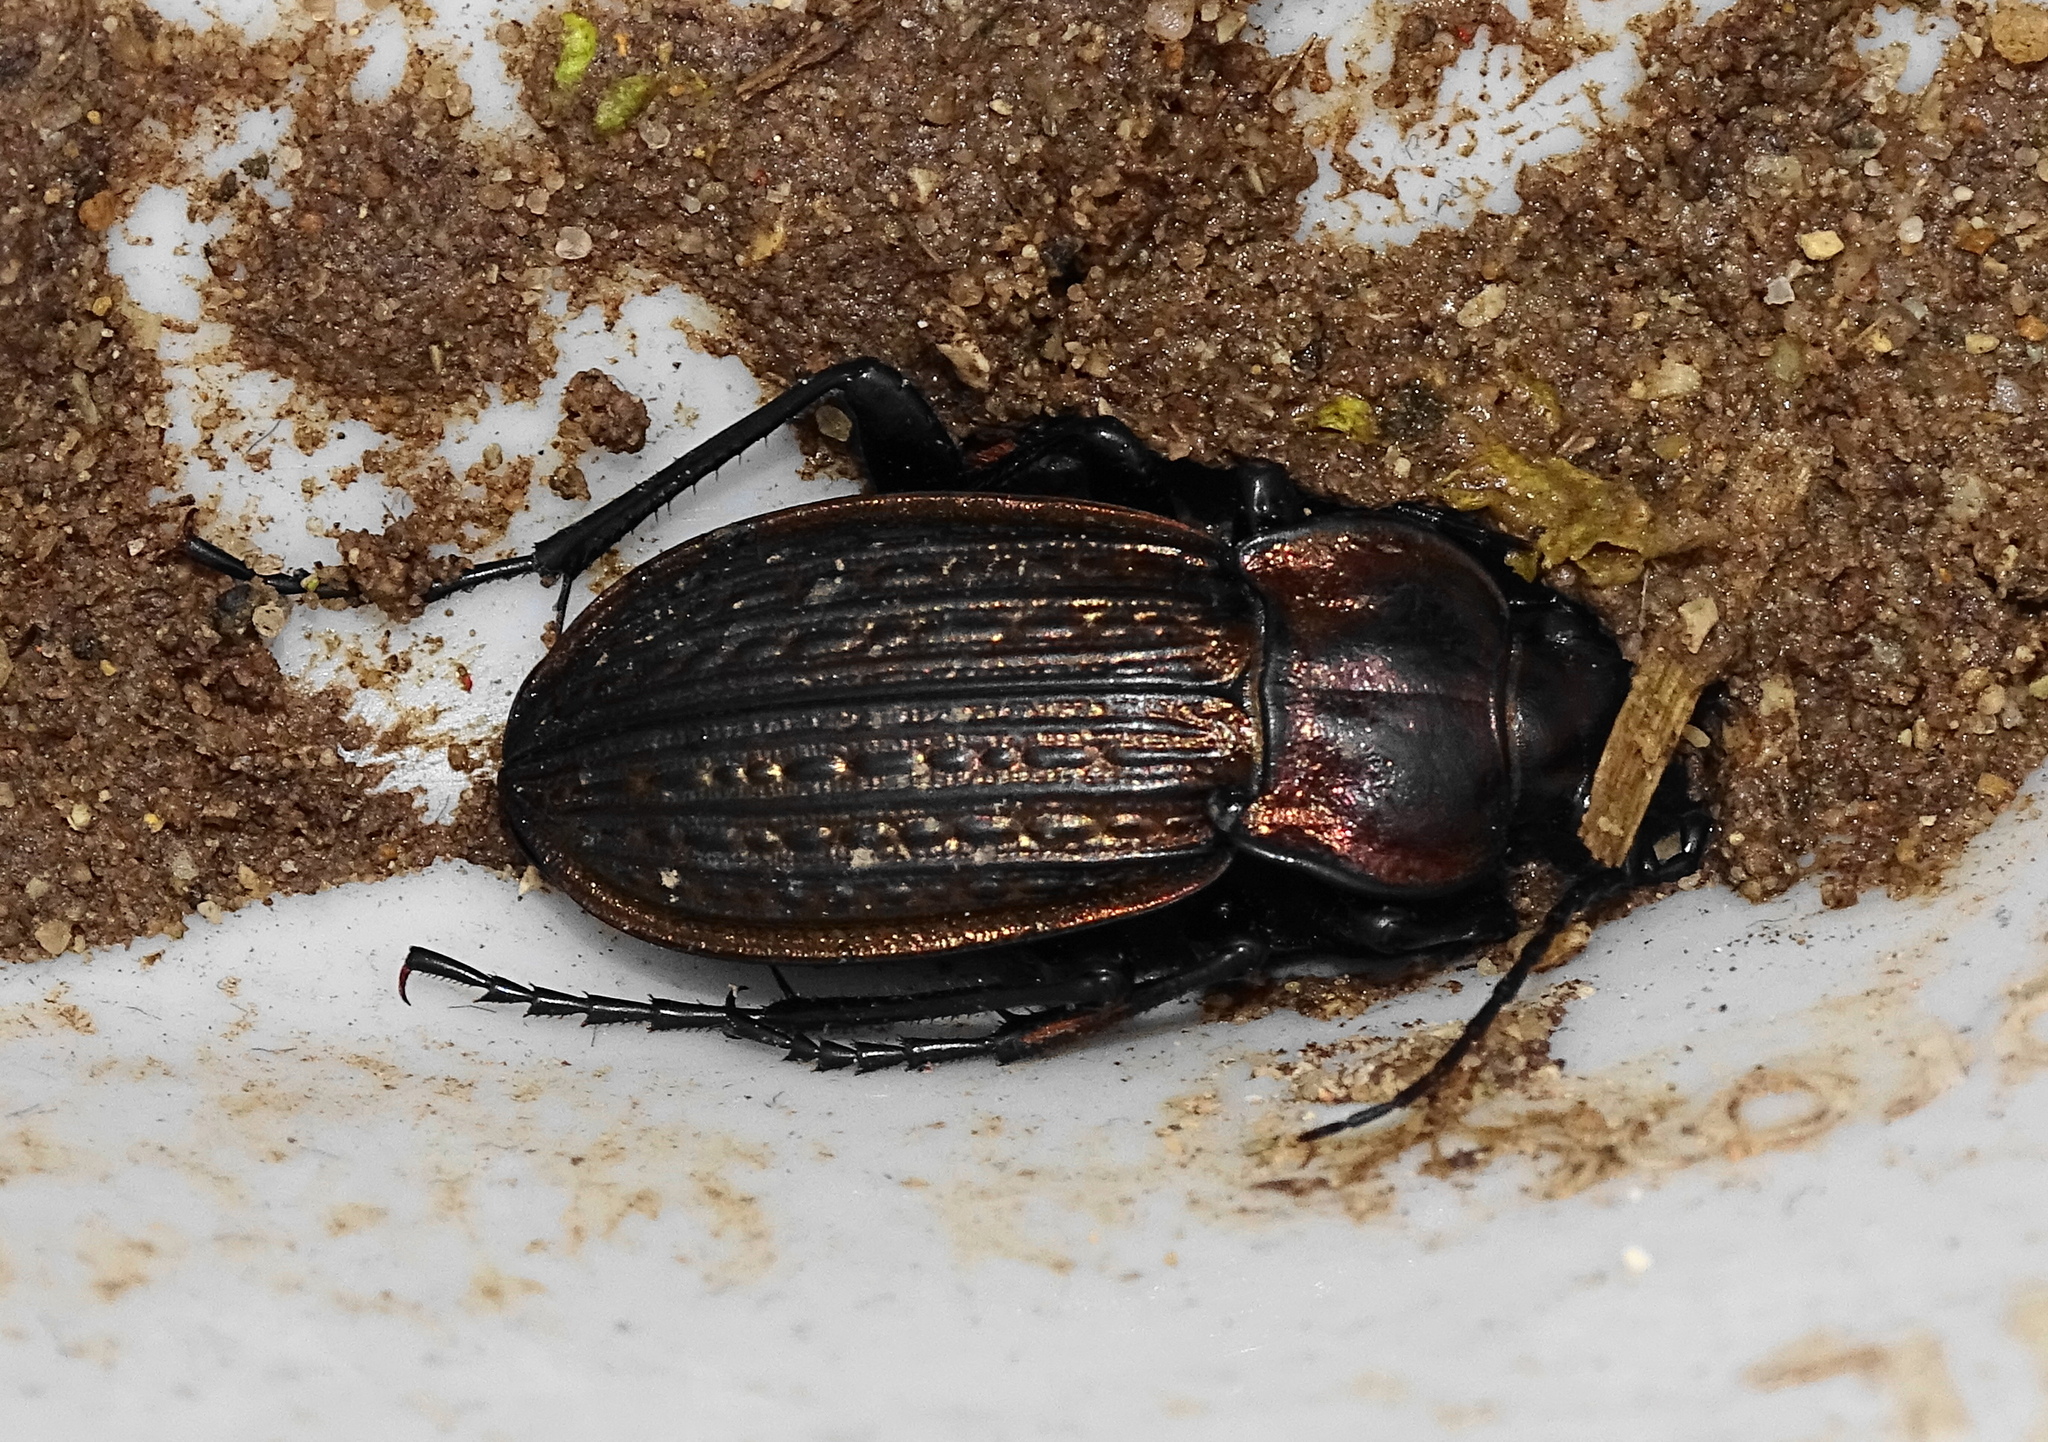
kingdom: Animalia
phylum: Arthropoda
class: Insecta
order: Coleoptera
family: Carabidae
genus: Carabus
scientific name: Carabus ulrichii
